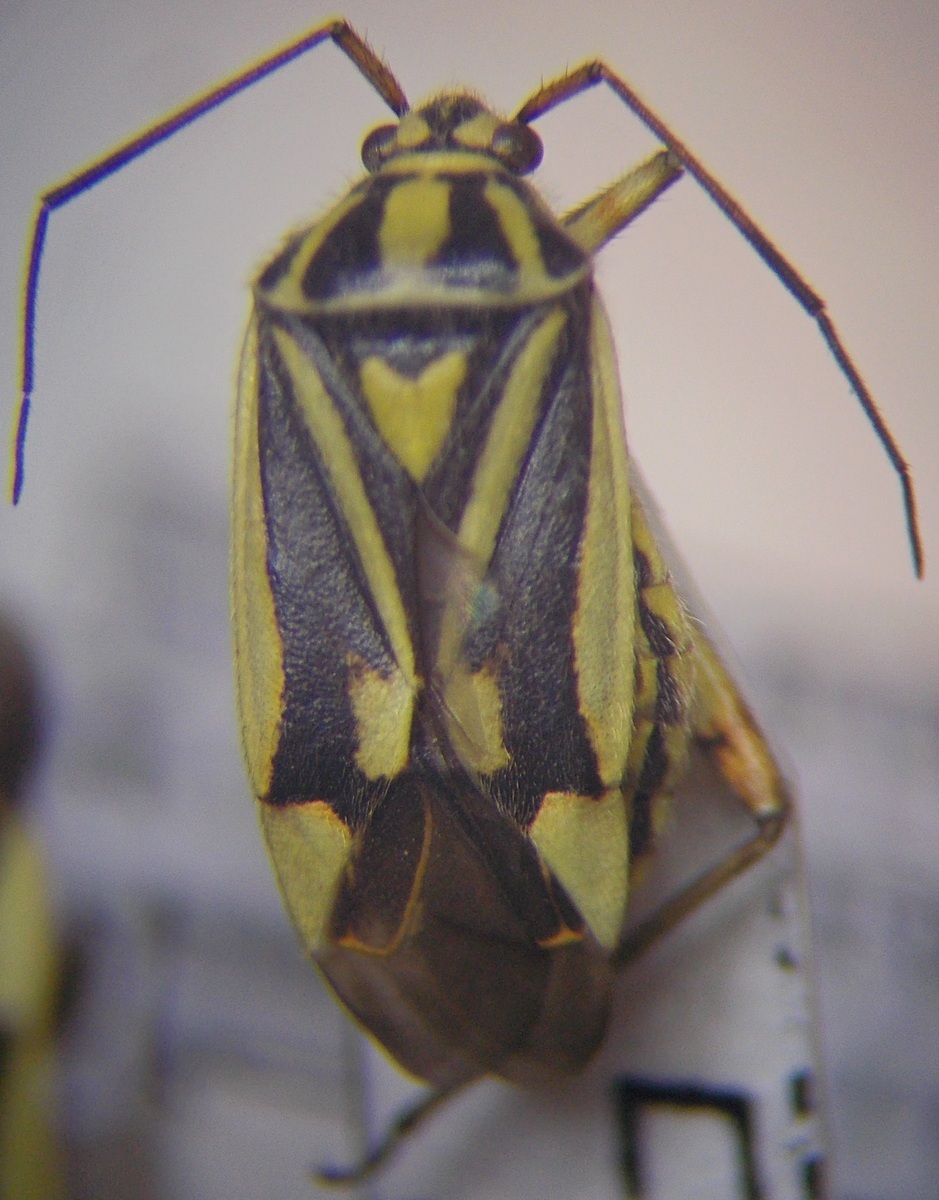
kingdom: Animalia
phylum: Arthropoda
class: Insecta
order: Hemiptera
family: Miridae
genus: Brachycoleus
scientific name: Brachycoleus decolor
